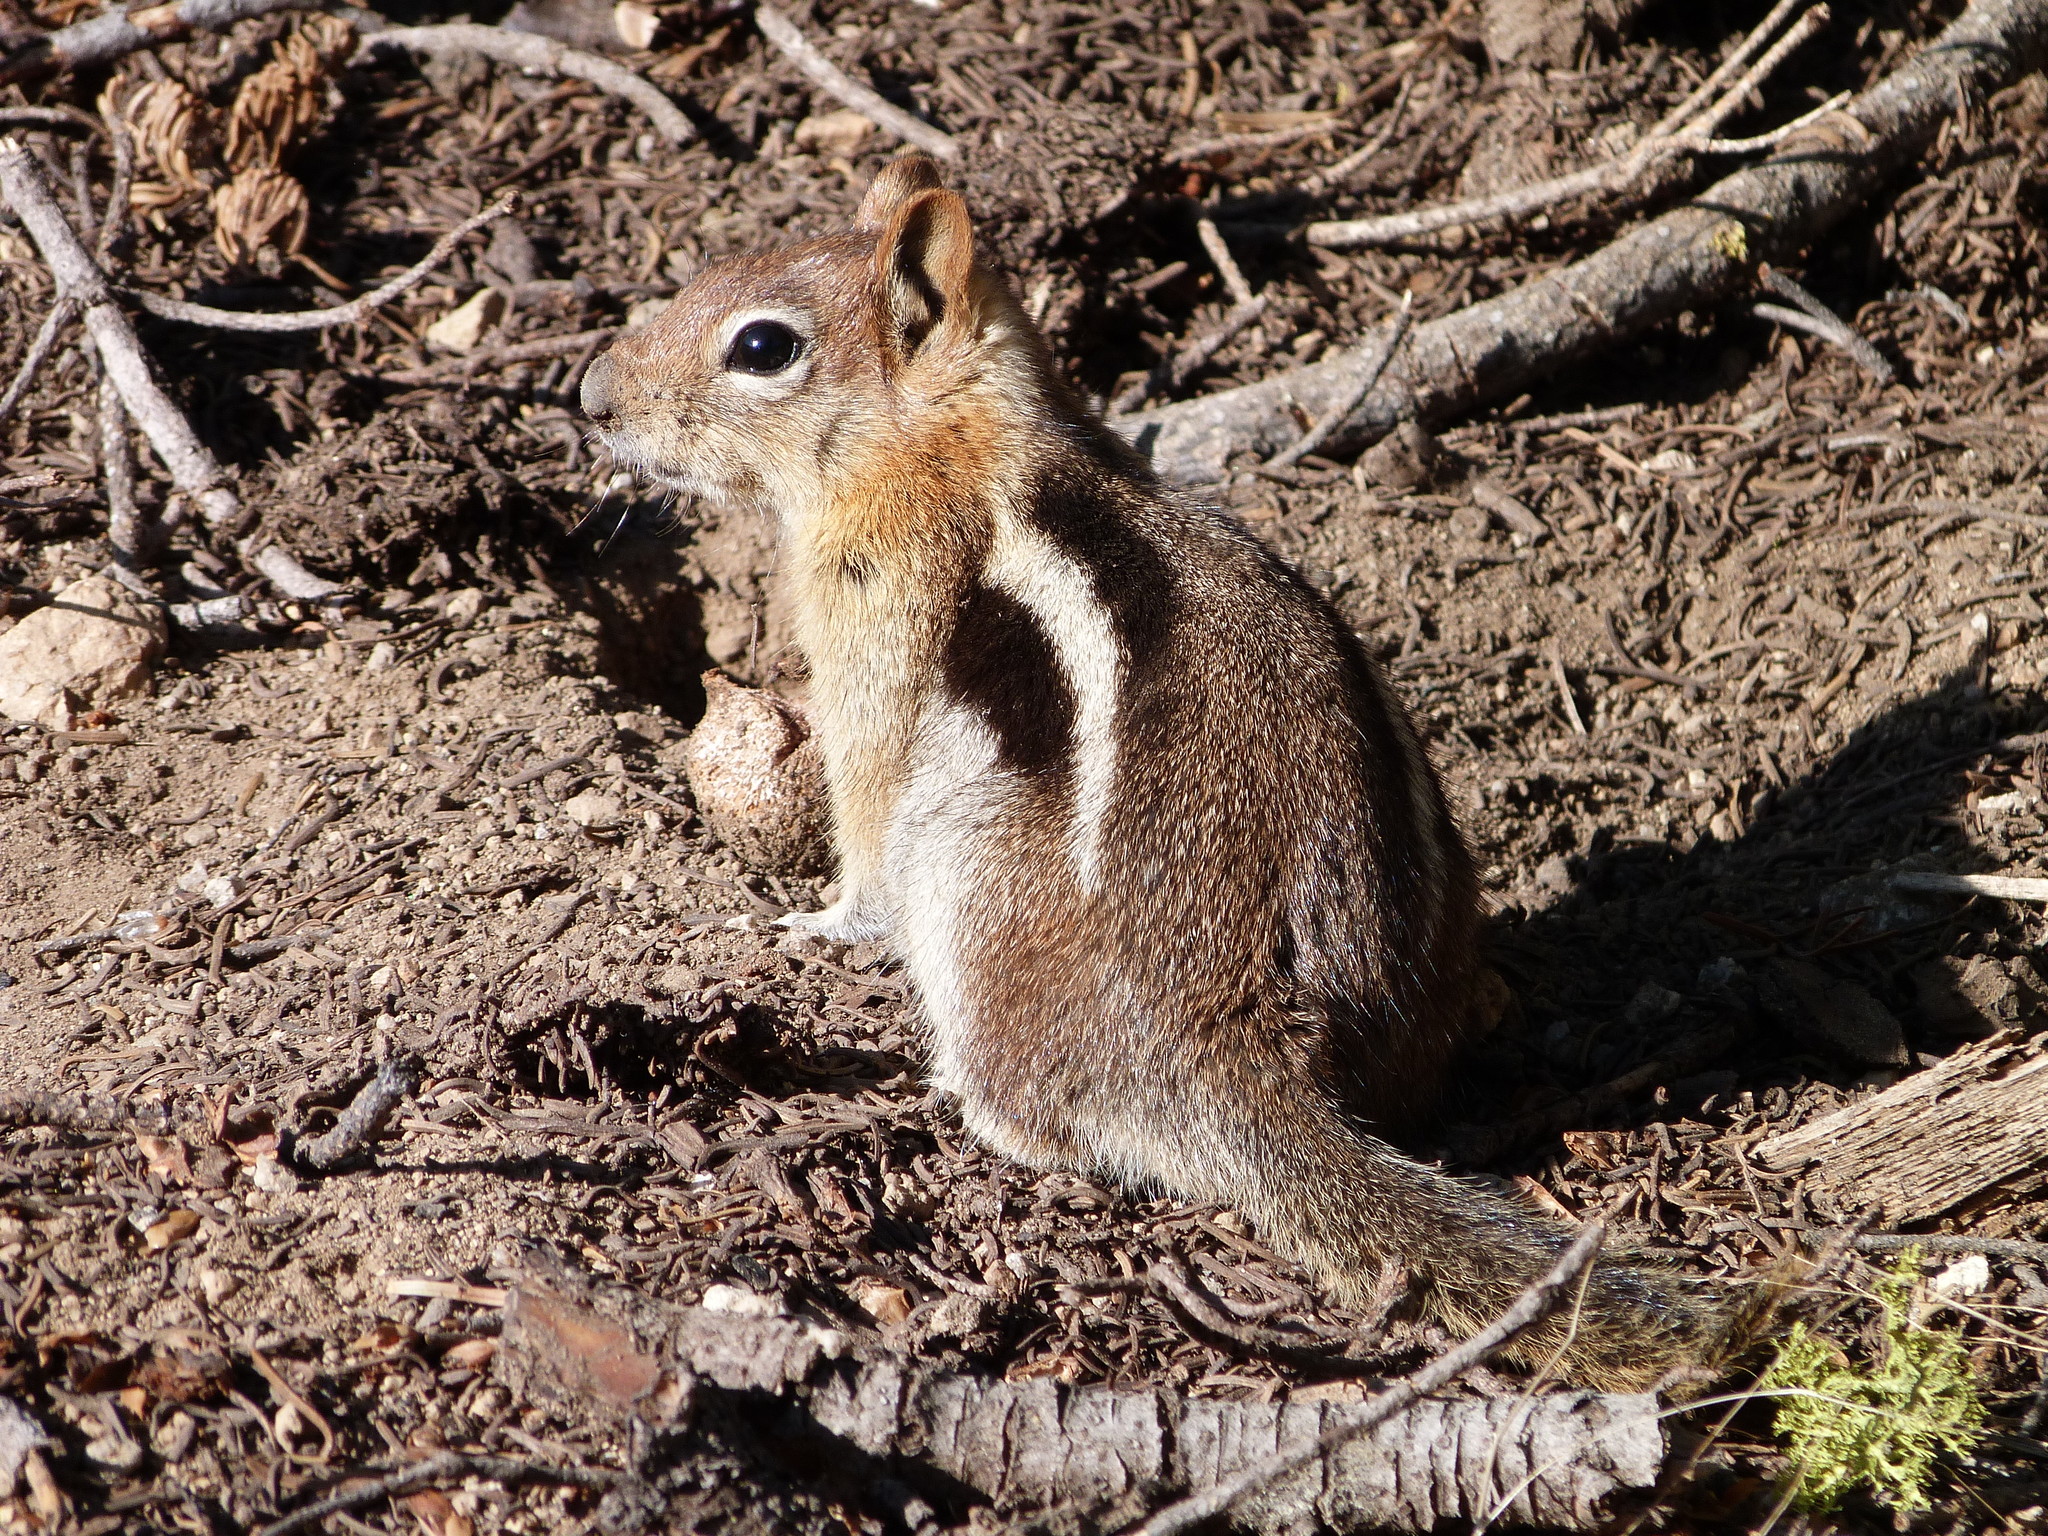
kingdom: Animalia
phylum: Chordata
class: Mammalia
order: Rodentia
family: Sciuridae
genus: Callospermophilus
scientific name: Callospermophilus lateralis
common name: Golden-mantled ground squirrel
